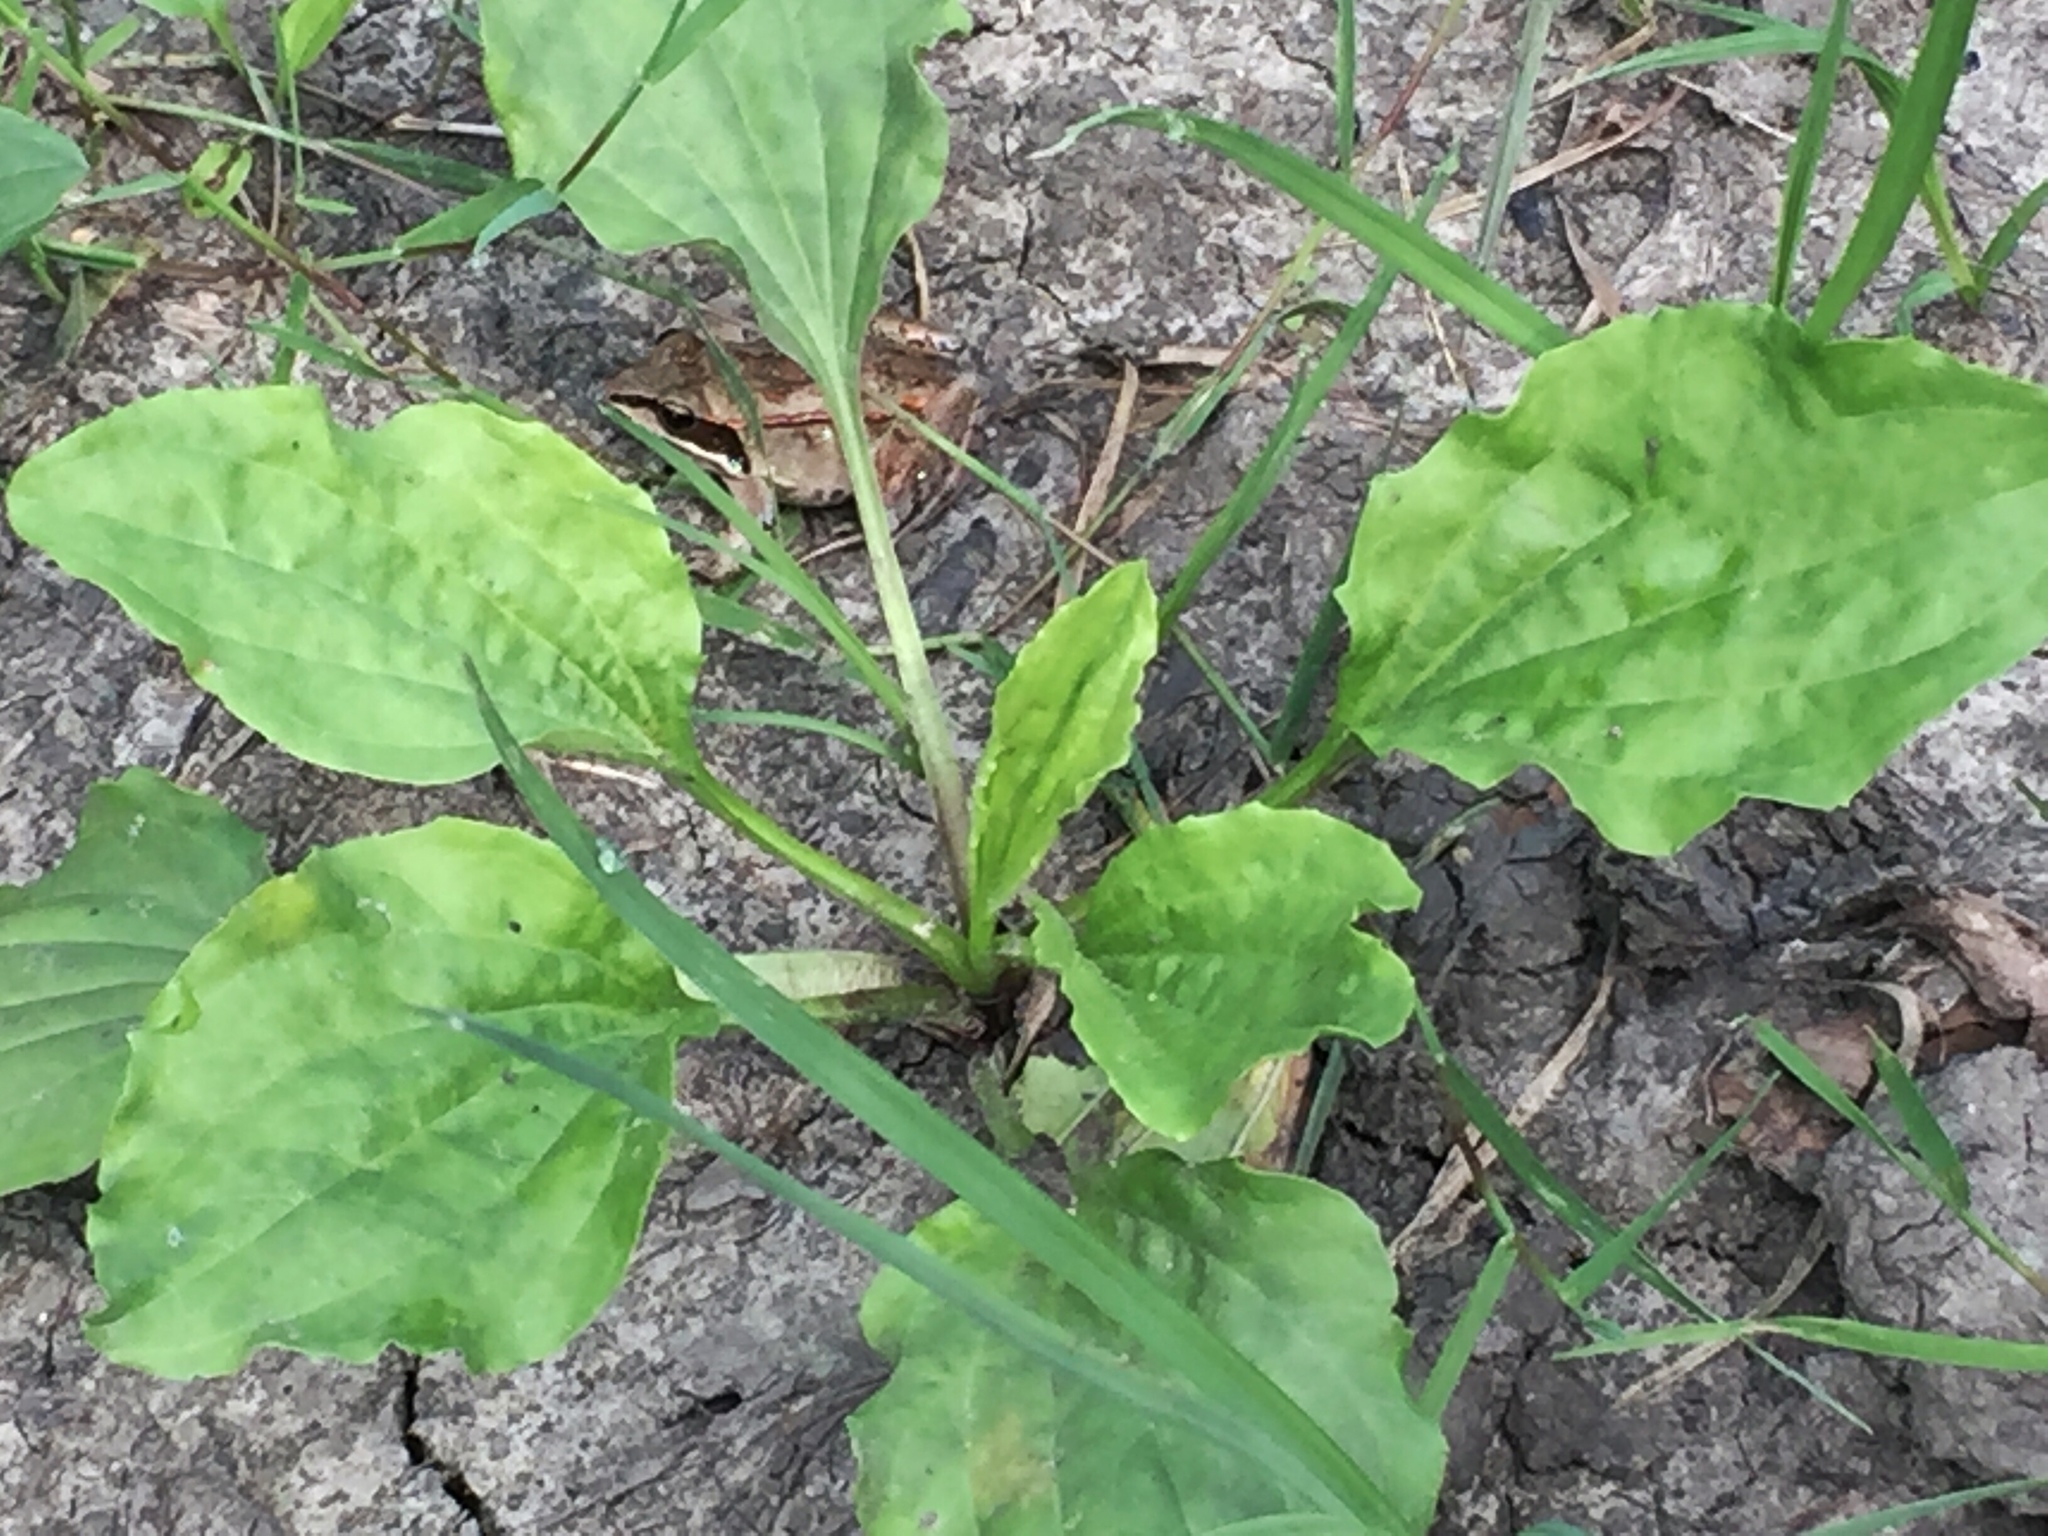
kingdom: Plantae
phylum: Tracheophyta
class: Magnoliopsida
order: Lamiales
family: Plantaginaceae
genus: Plantago
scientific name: Plantago major
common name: Common plantain
